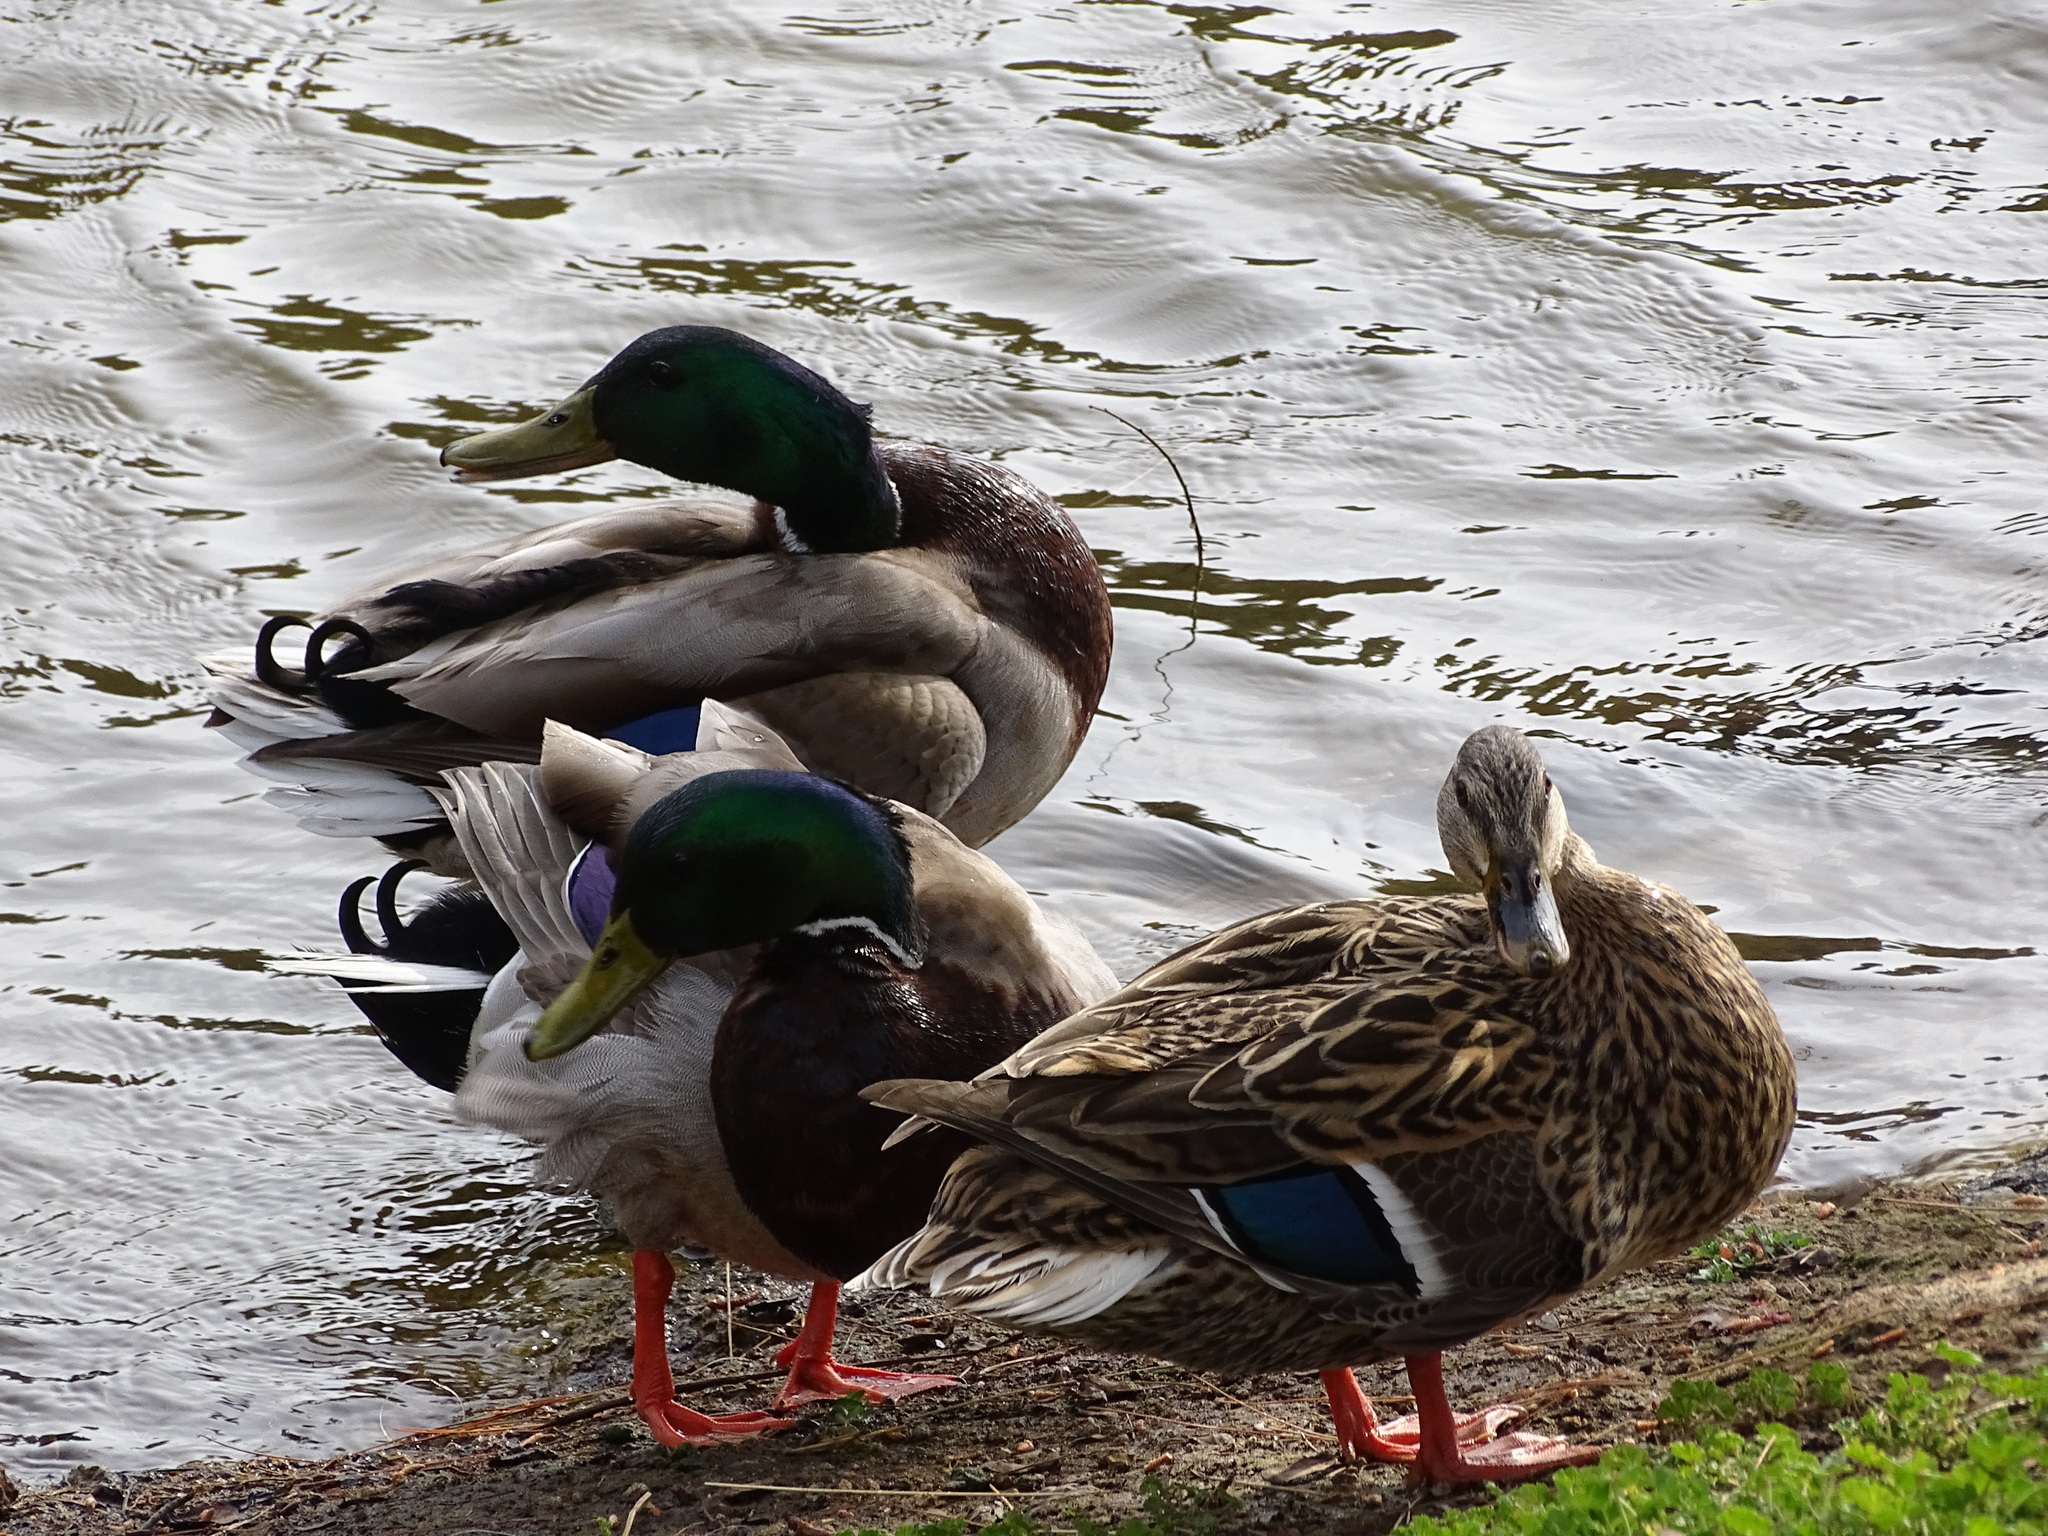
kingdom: Animalia
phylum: Chordata
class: Aves
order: Anseriformes
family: Anatidae
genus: Anas
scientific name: Anas platyrhynchos
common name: Mallard
